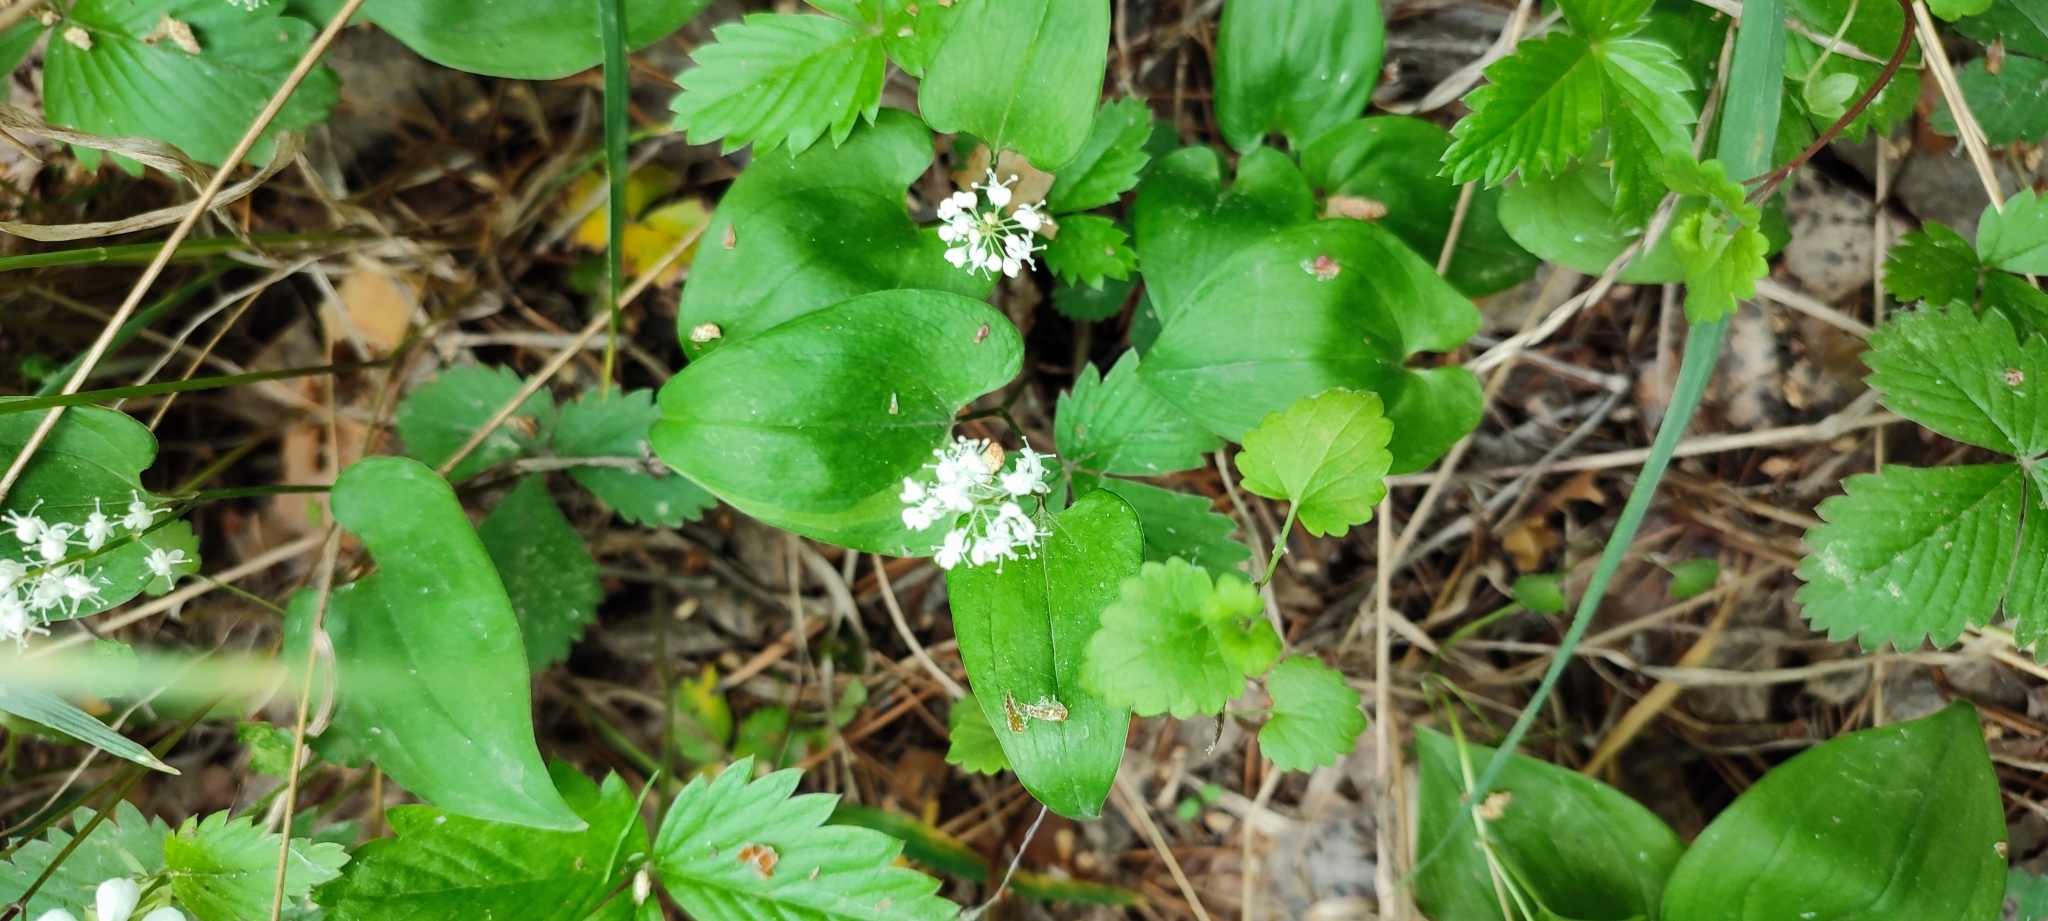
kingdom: Plantae
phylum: Tracheophyta
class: Liliopsida
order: Asparagales
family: Asparagaceae
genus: Maianthemum
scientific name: Maianthemum bifolium
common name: May lily
